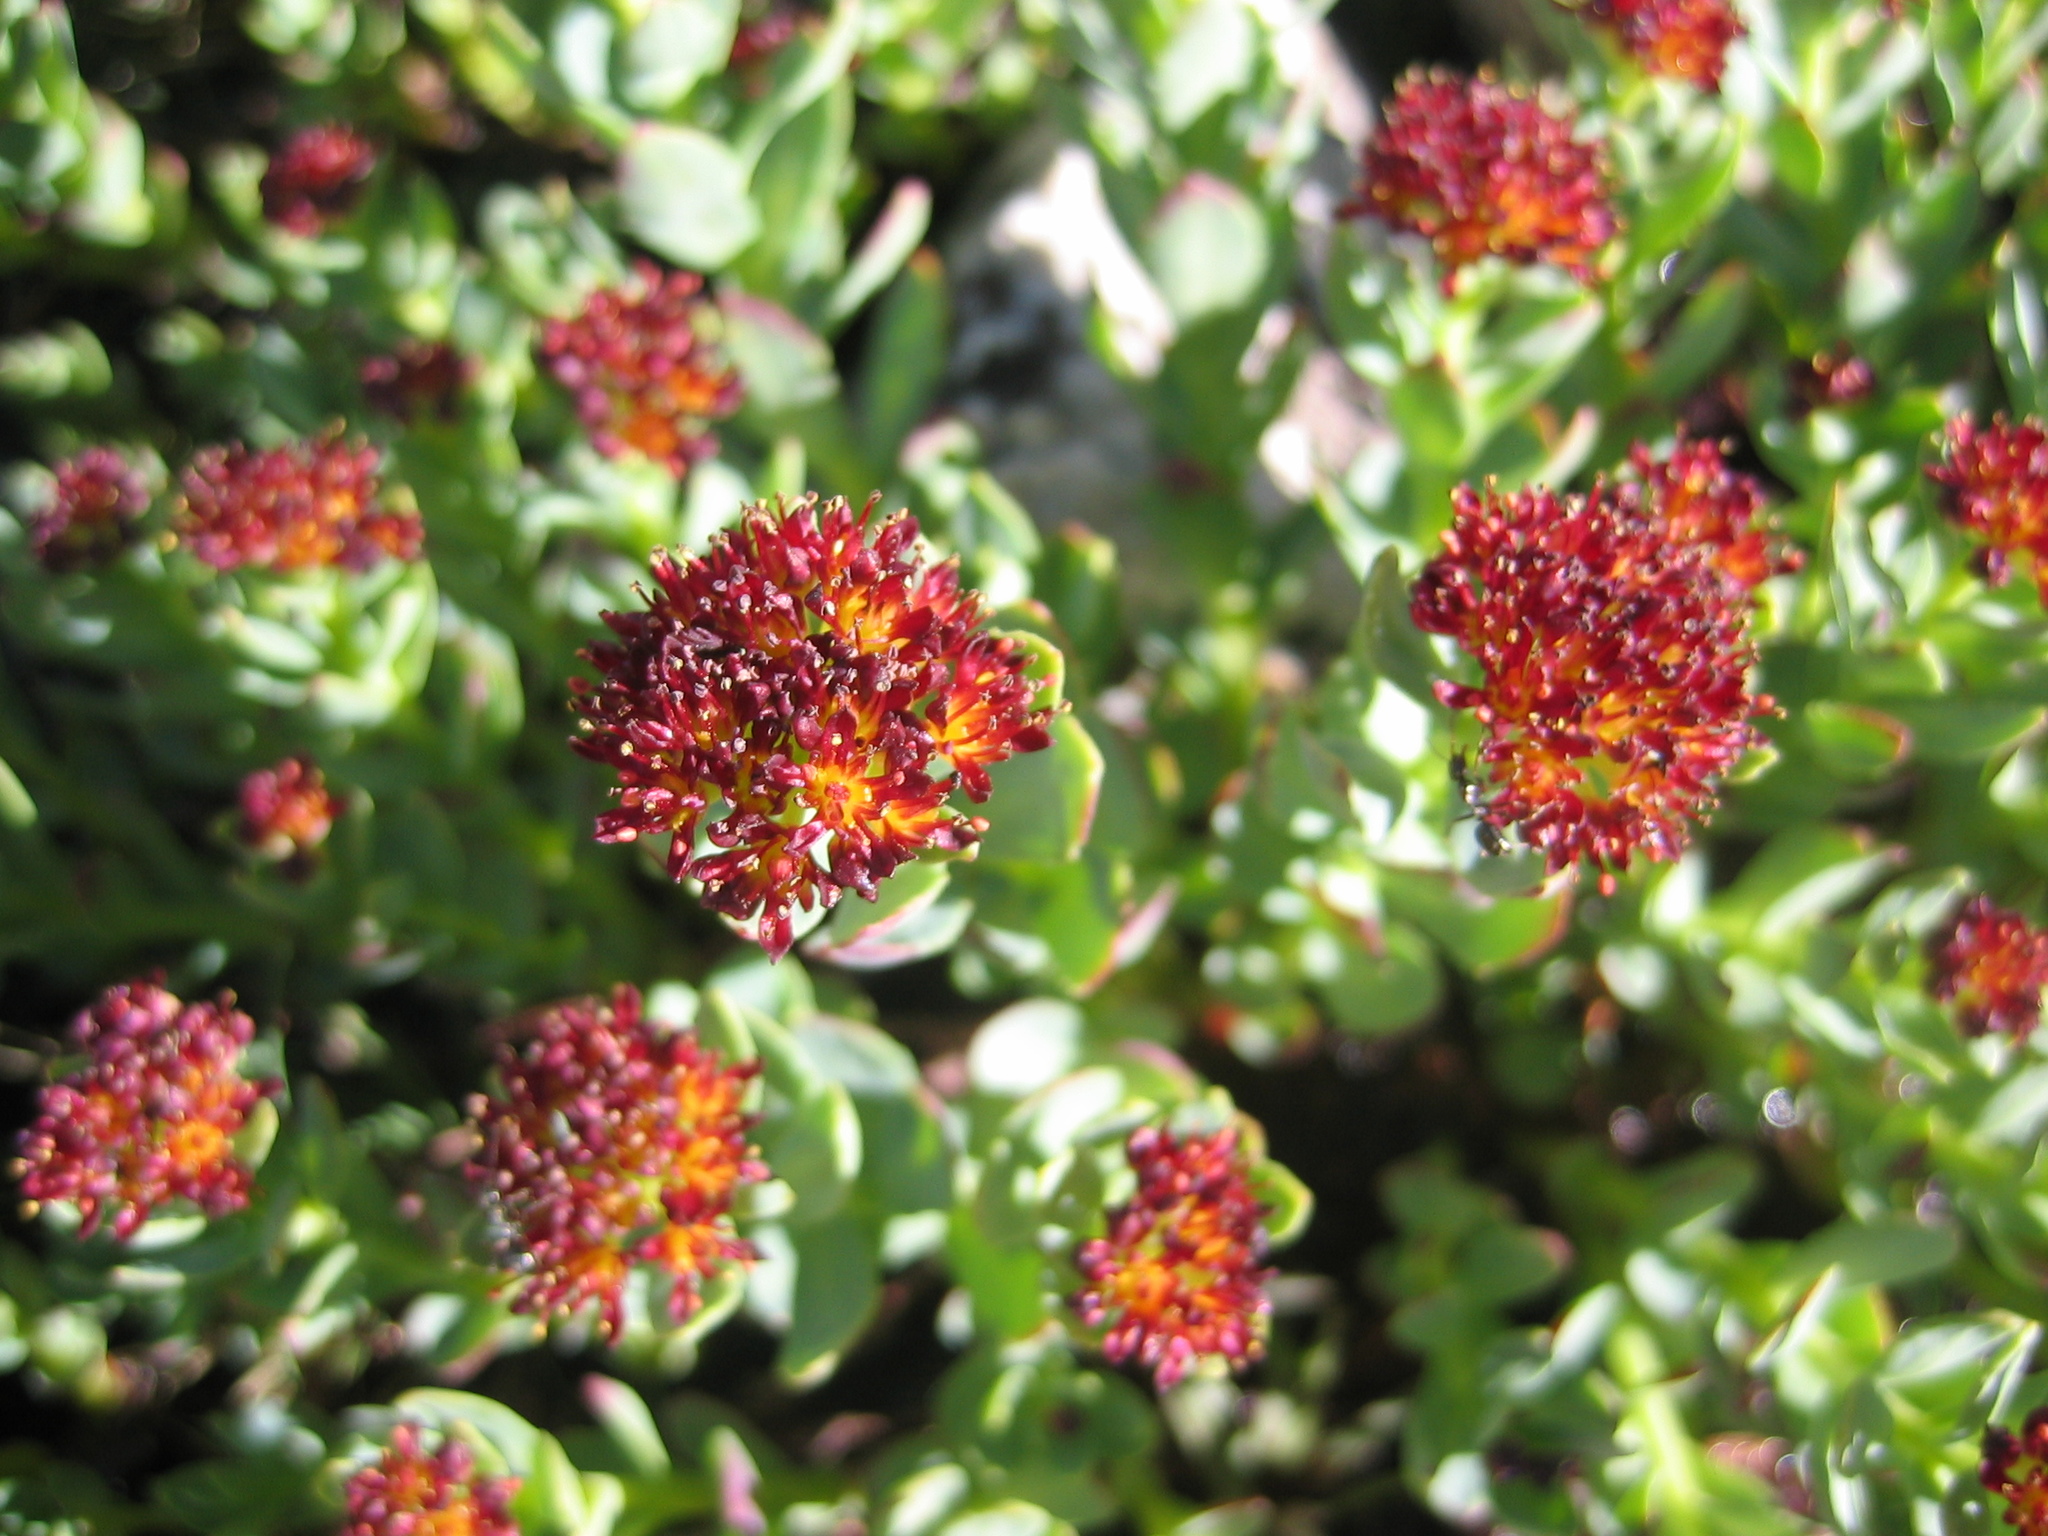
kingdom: Plantae
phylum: Tracheophyta
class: Magnoliopsida
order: Saxifragales
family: Crassulaceae
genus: Rhodiola
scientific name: Rhodiola integrifolia
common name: Western roseroot
